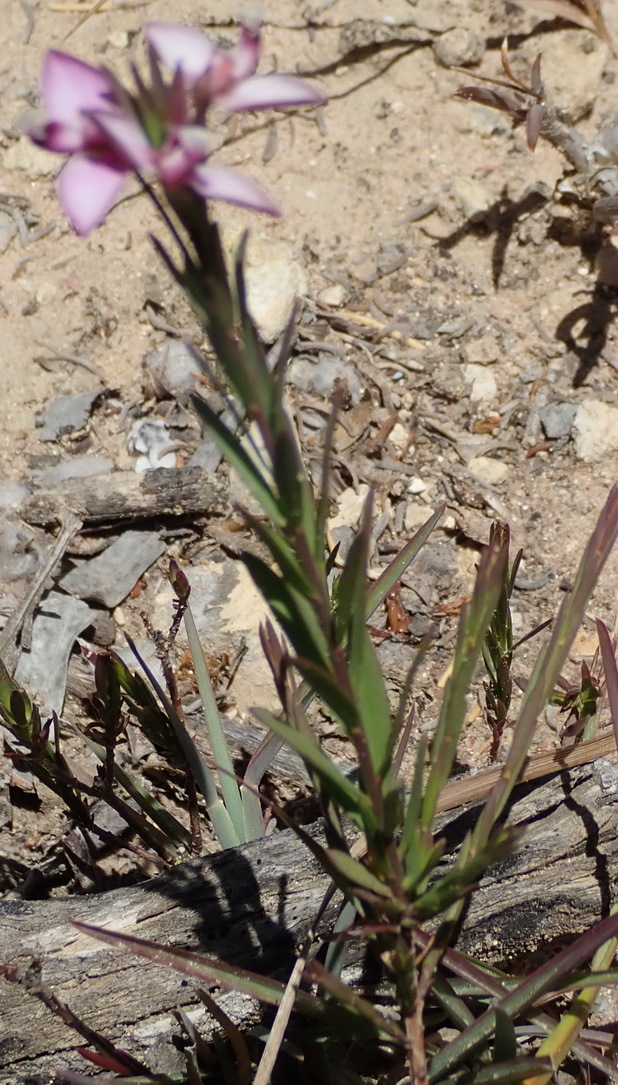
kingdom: Plantae
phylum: Tracheophyta
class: Magnoliopsida
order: Fabales
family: Polygalaceae
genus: Polygala
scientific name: Polygala umbellata
